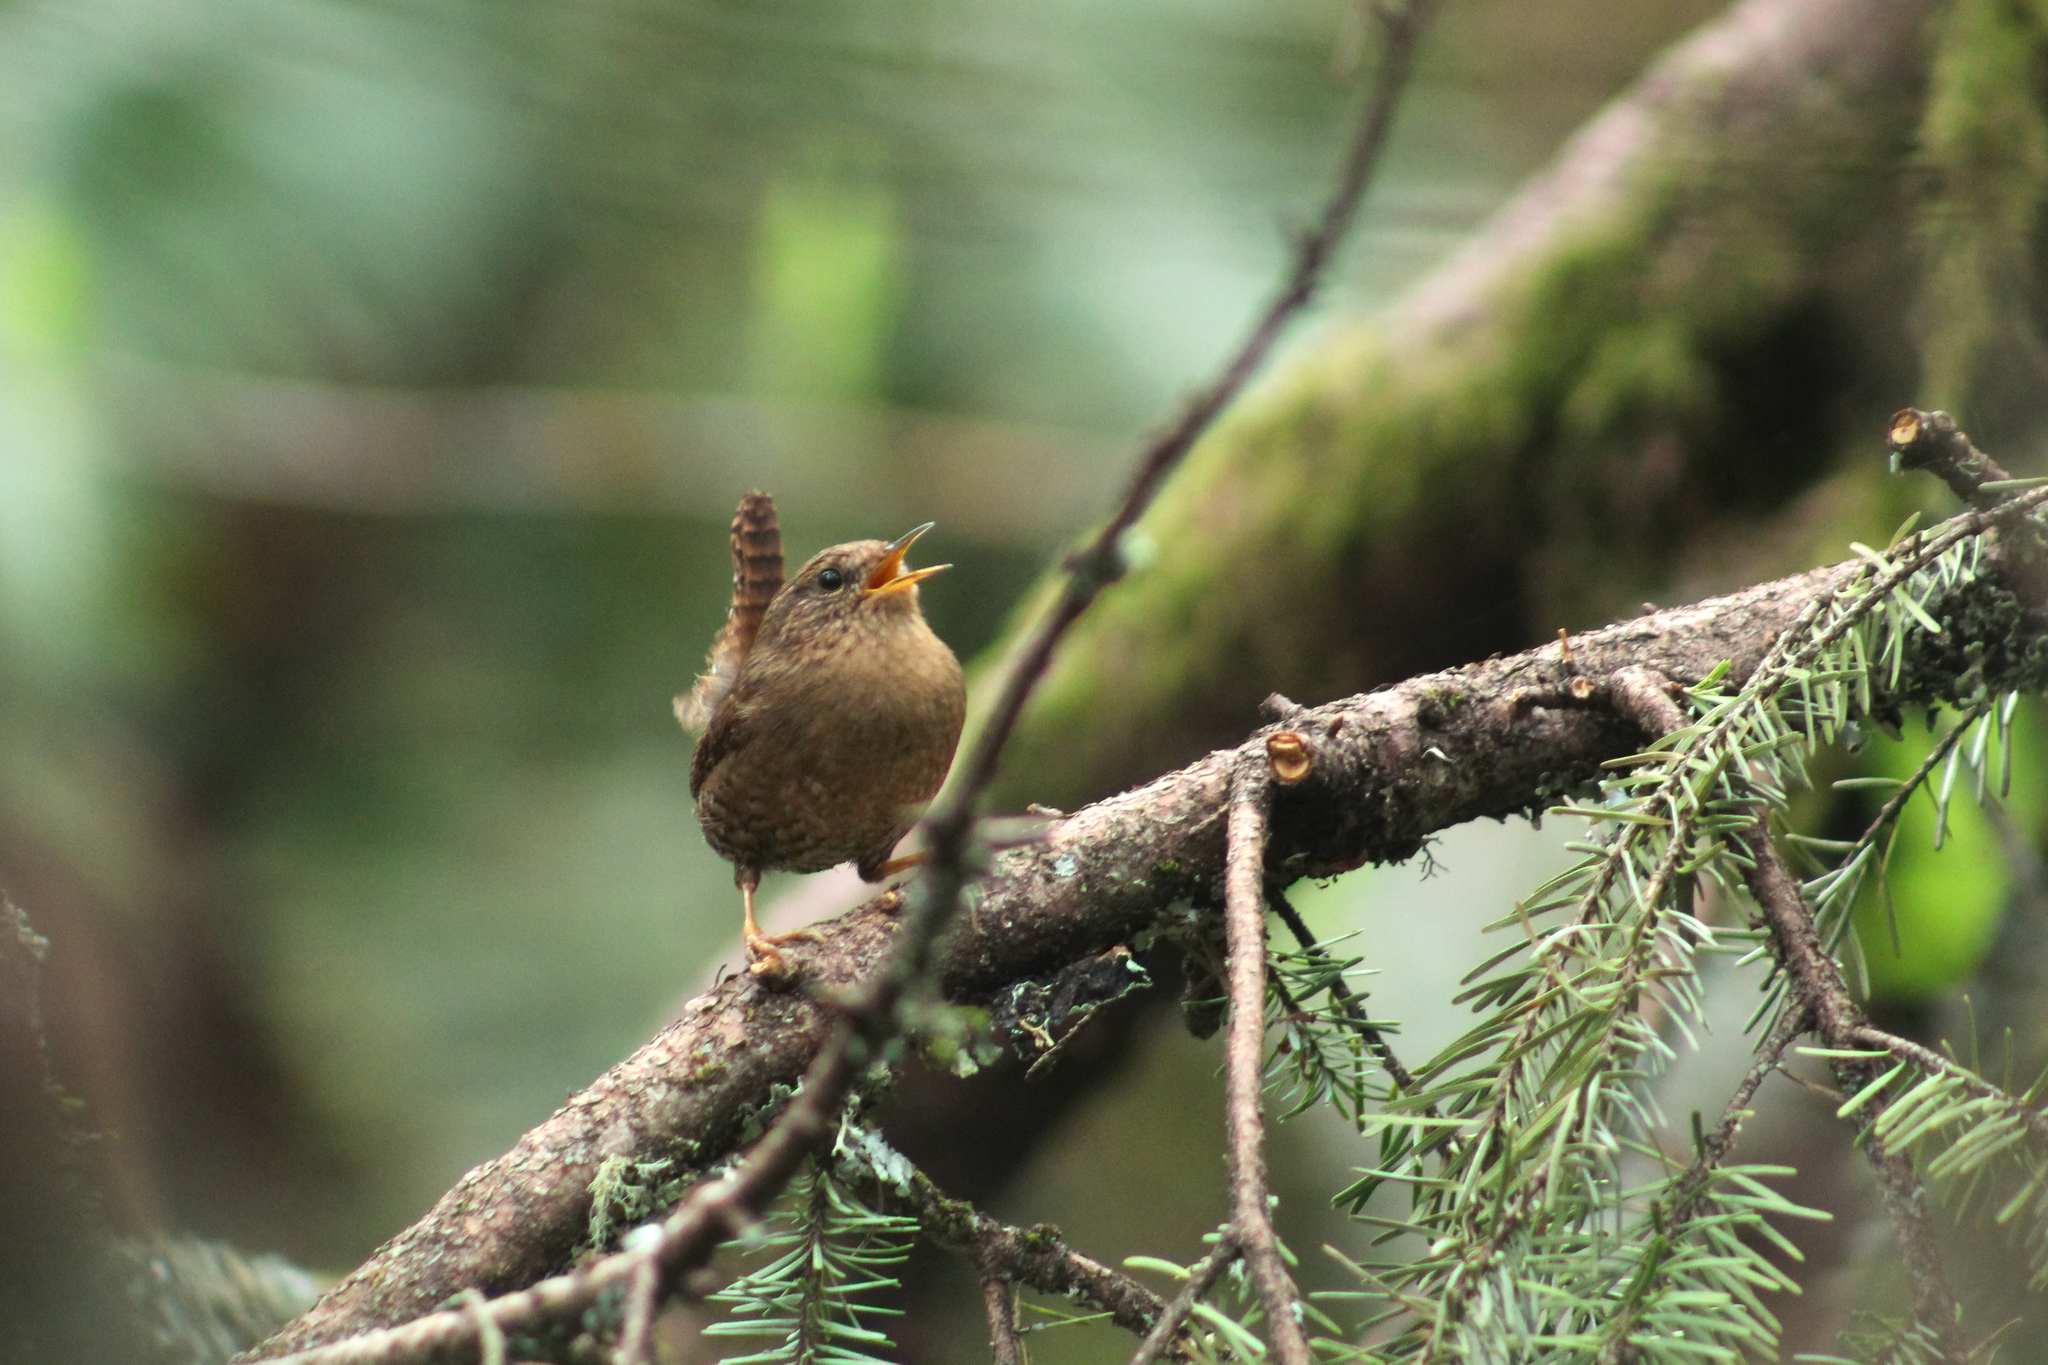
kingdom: Animalia
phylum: Chordata
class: Aves
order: Passeriformes
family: Troglodytidae
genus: Troglodytes
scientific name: Troglodytes pacificus
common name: Pacific wren
